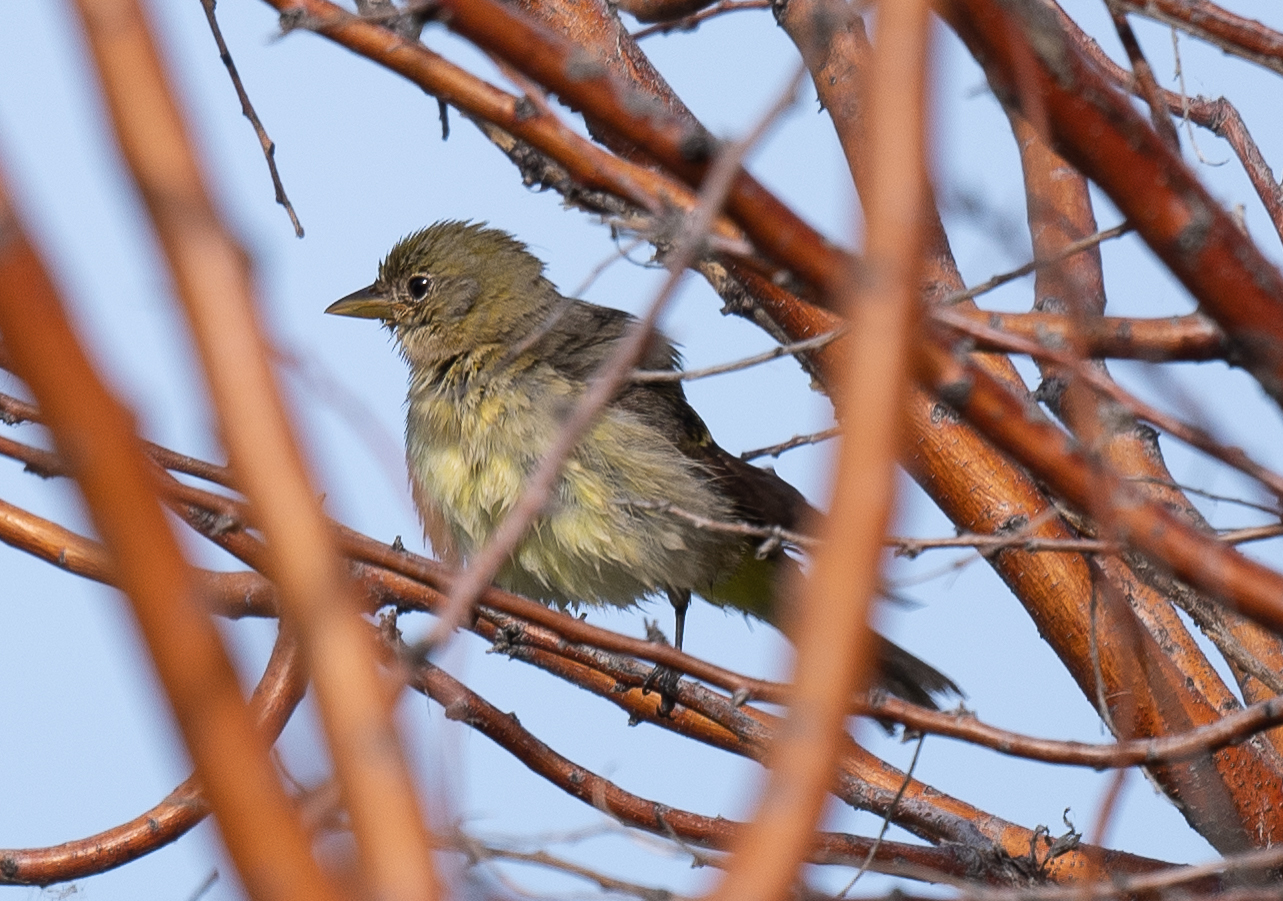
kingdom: Animalia
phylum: Chordata
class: Aves
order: Passeriformes
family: Cardinalidae
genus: Piranga
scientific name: Piranga ludoviciana
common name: Western tanager
